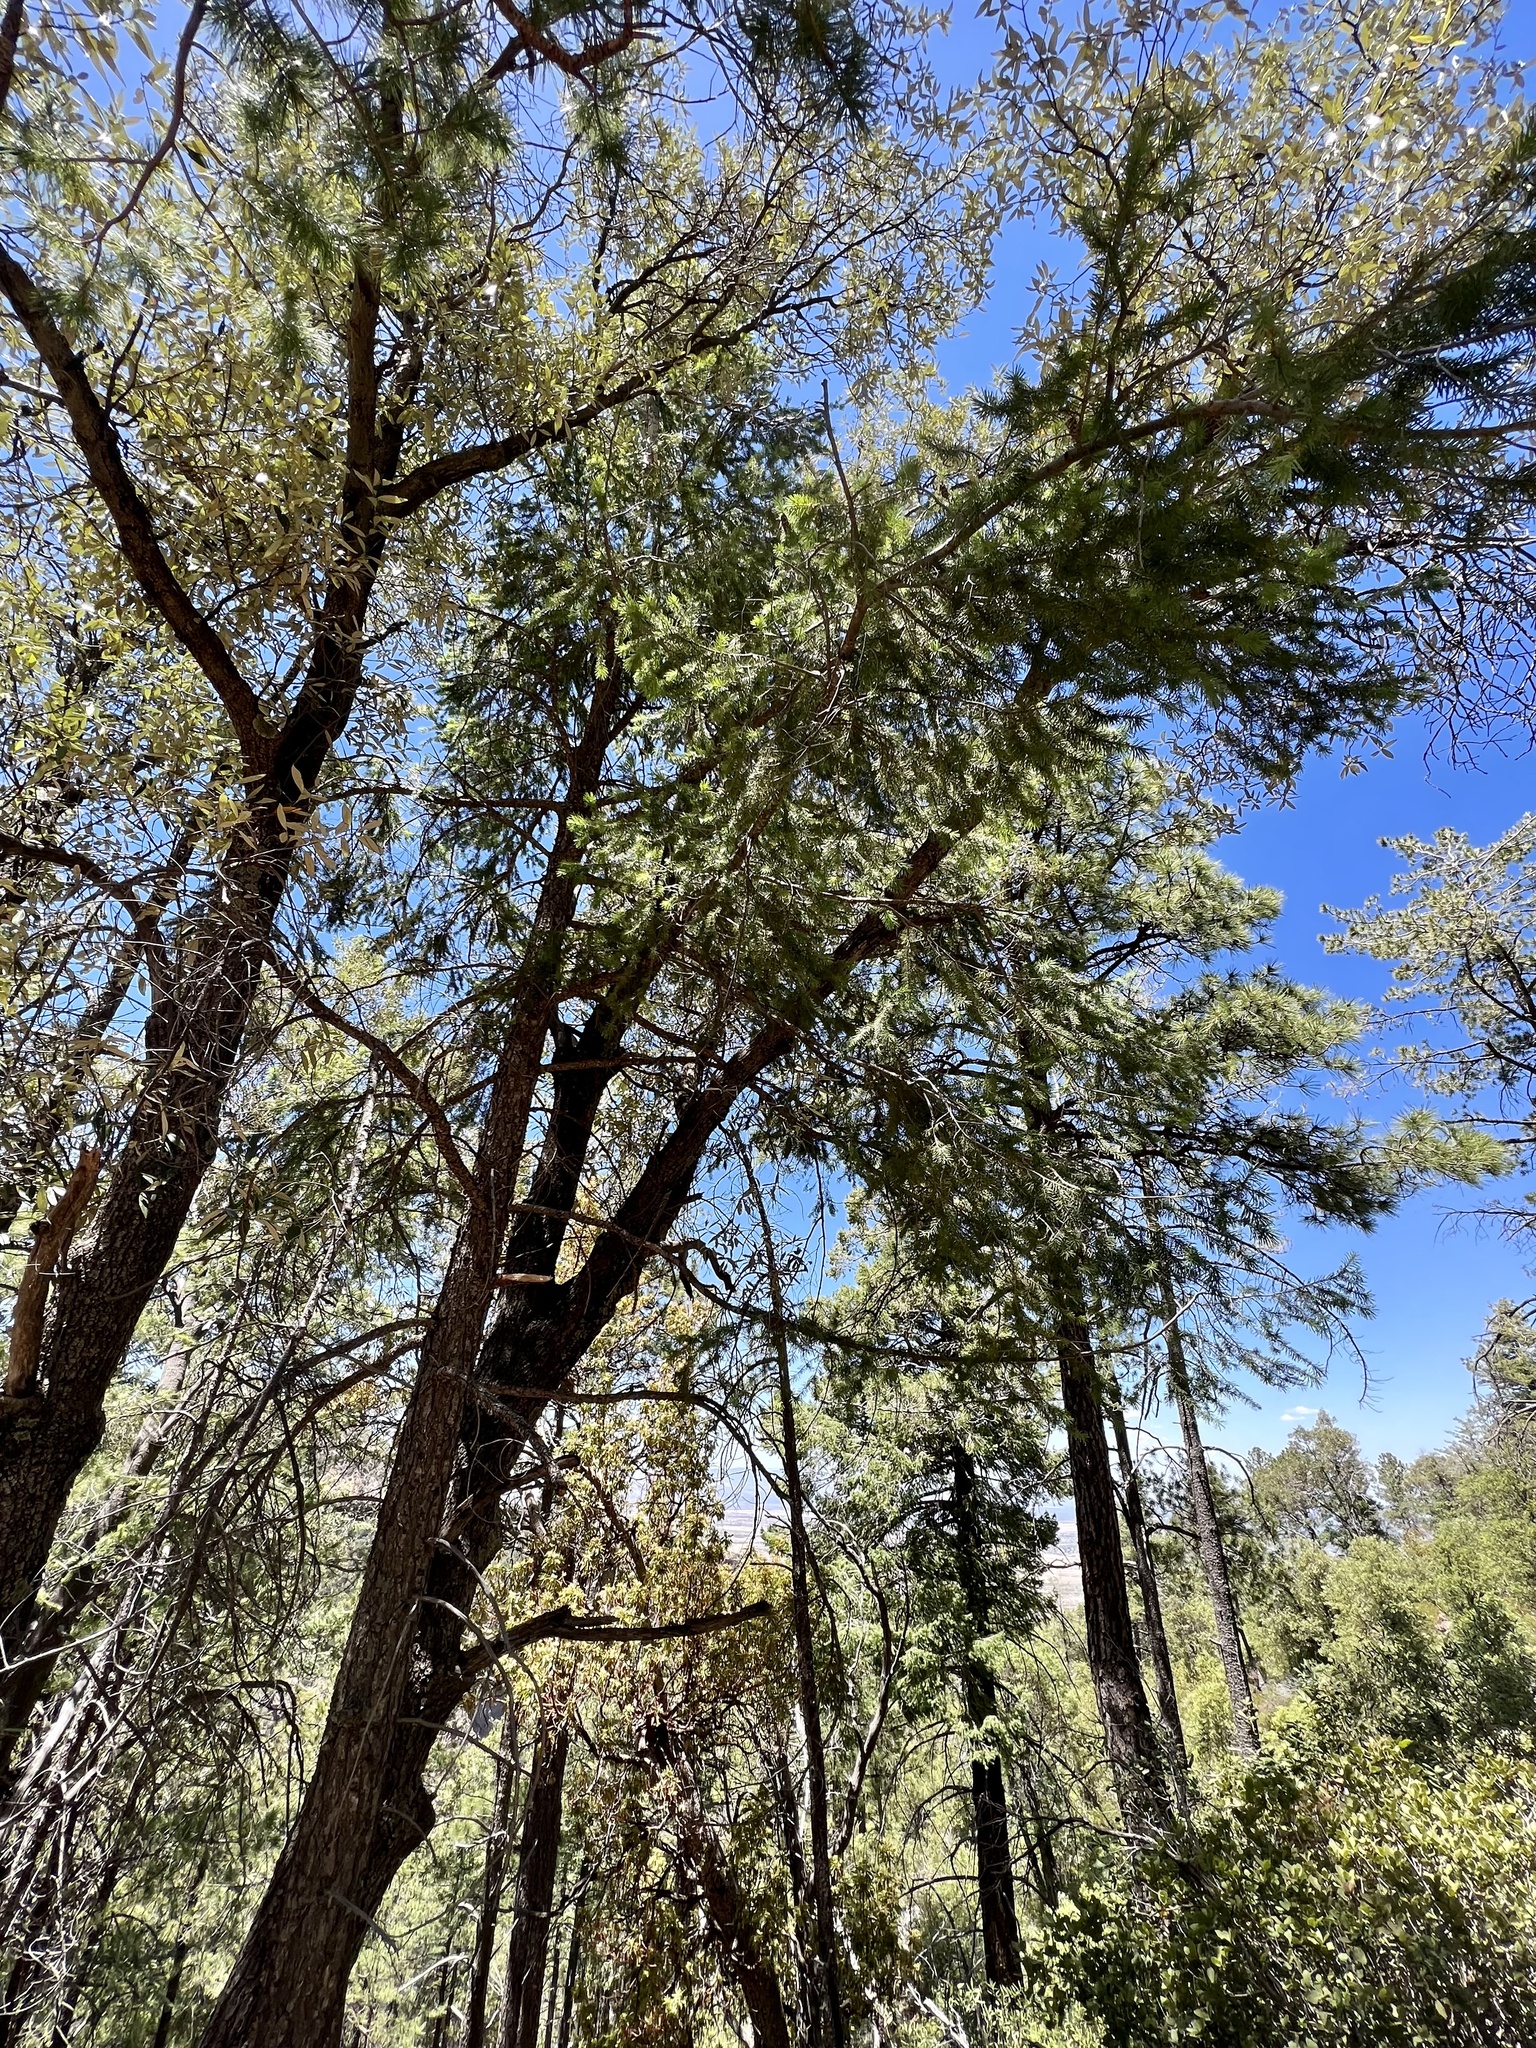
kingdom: Plantae
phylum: Tracheophyta
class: Pinopsida
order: Pinales
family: Pinaceae
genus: Pseudotsuga
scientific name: Pseudotsuga menziesii
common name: Douglas fir
